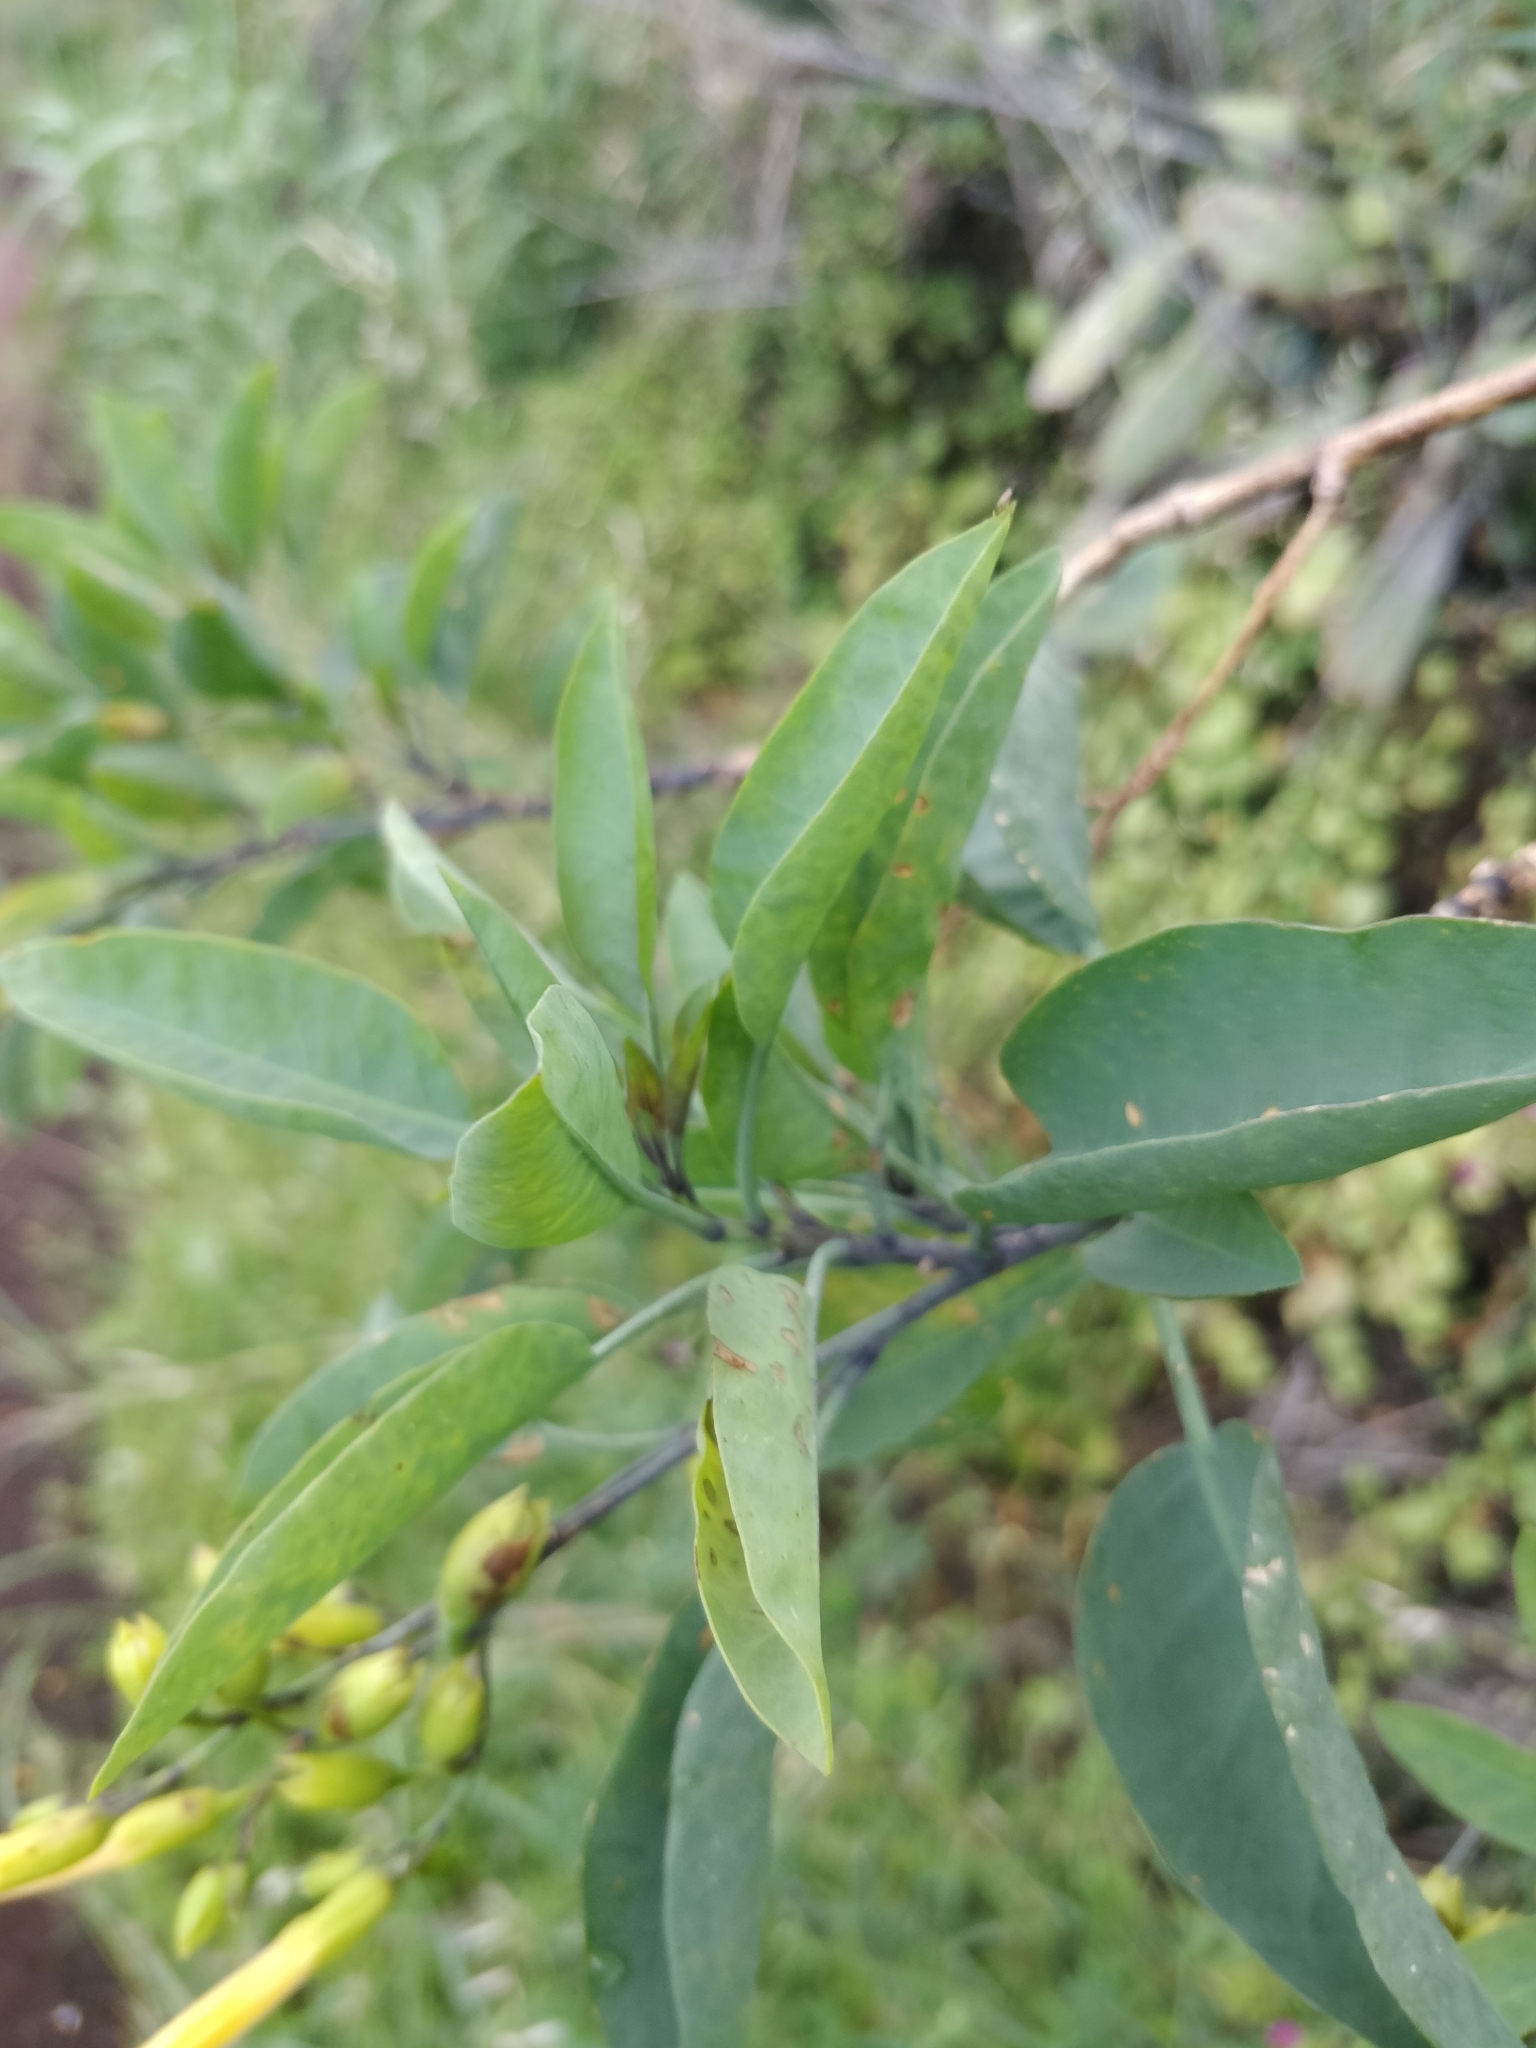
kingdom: Plantae
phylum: Tracheophyta
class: Magnoliopsida
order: Solanales
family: Solanaceae
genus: Nicotiana
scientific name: Nicotiana glauca
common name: Tree tobacco
